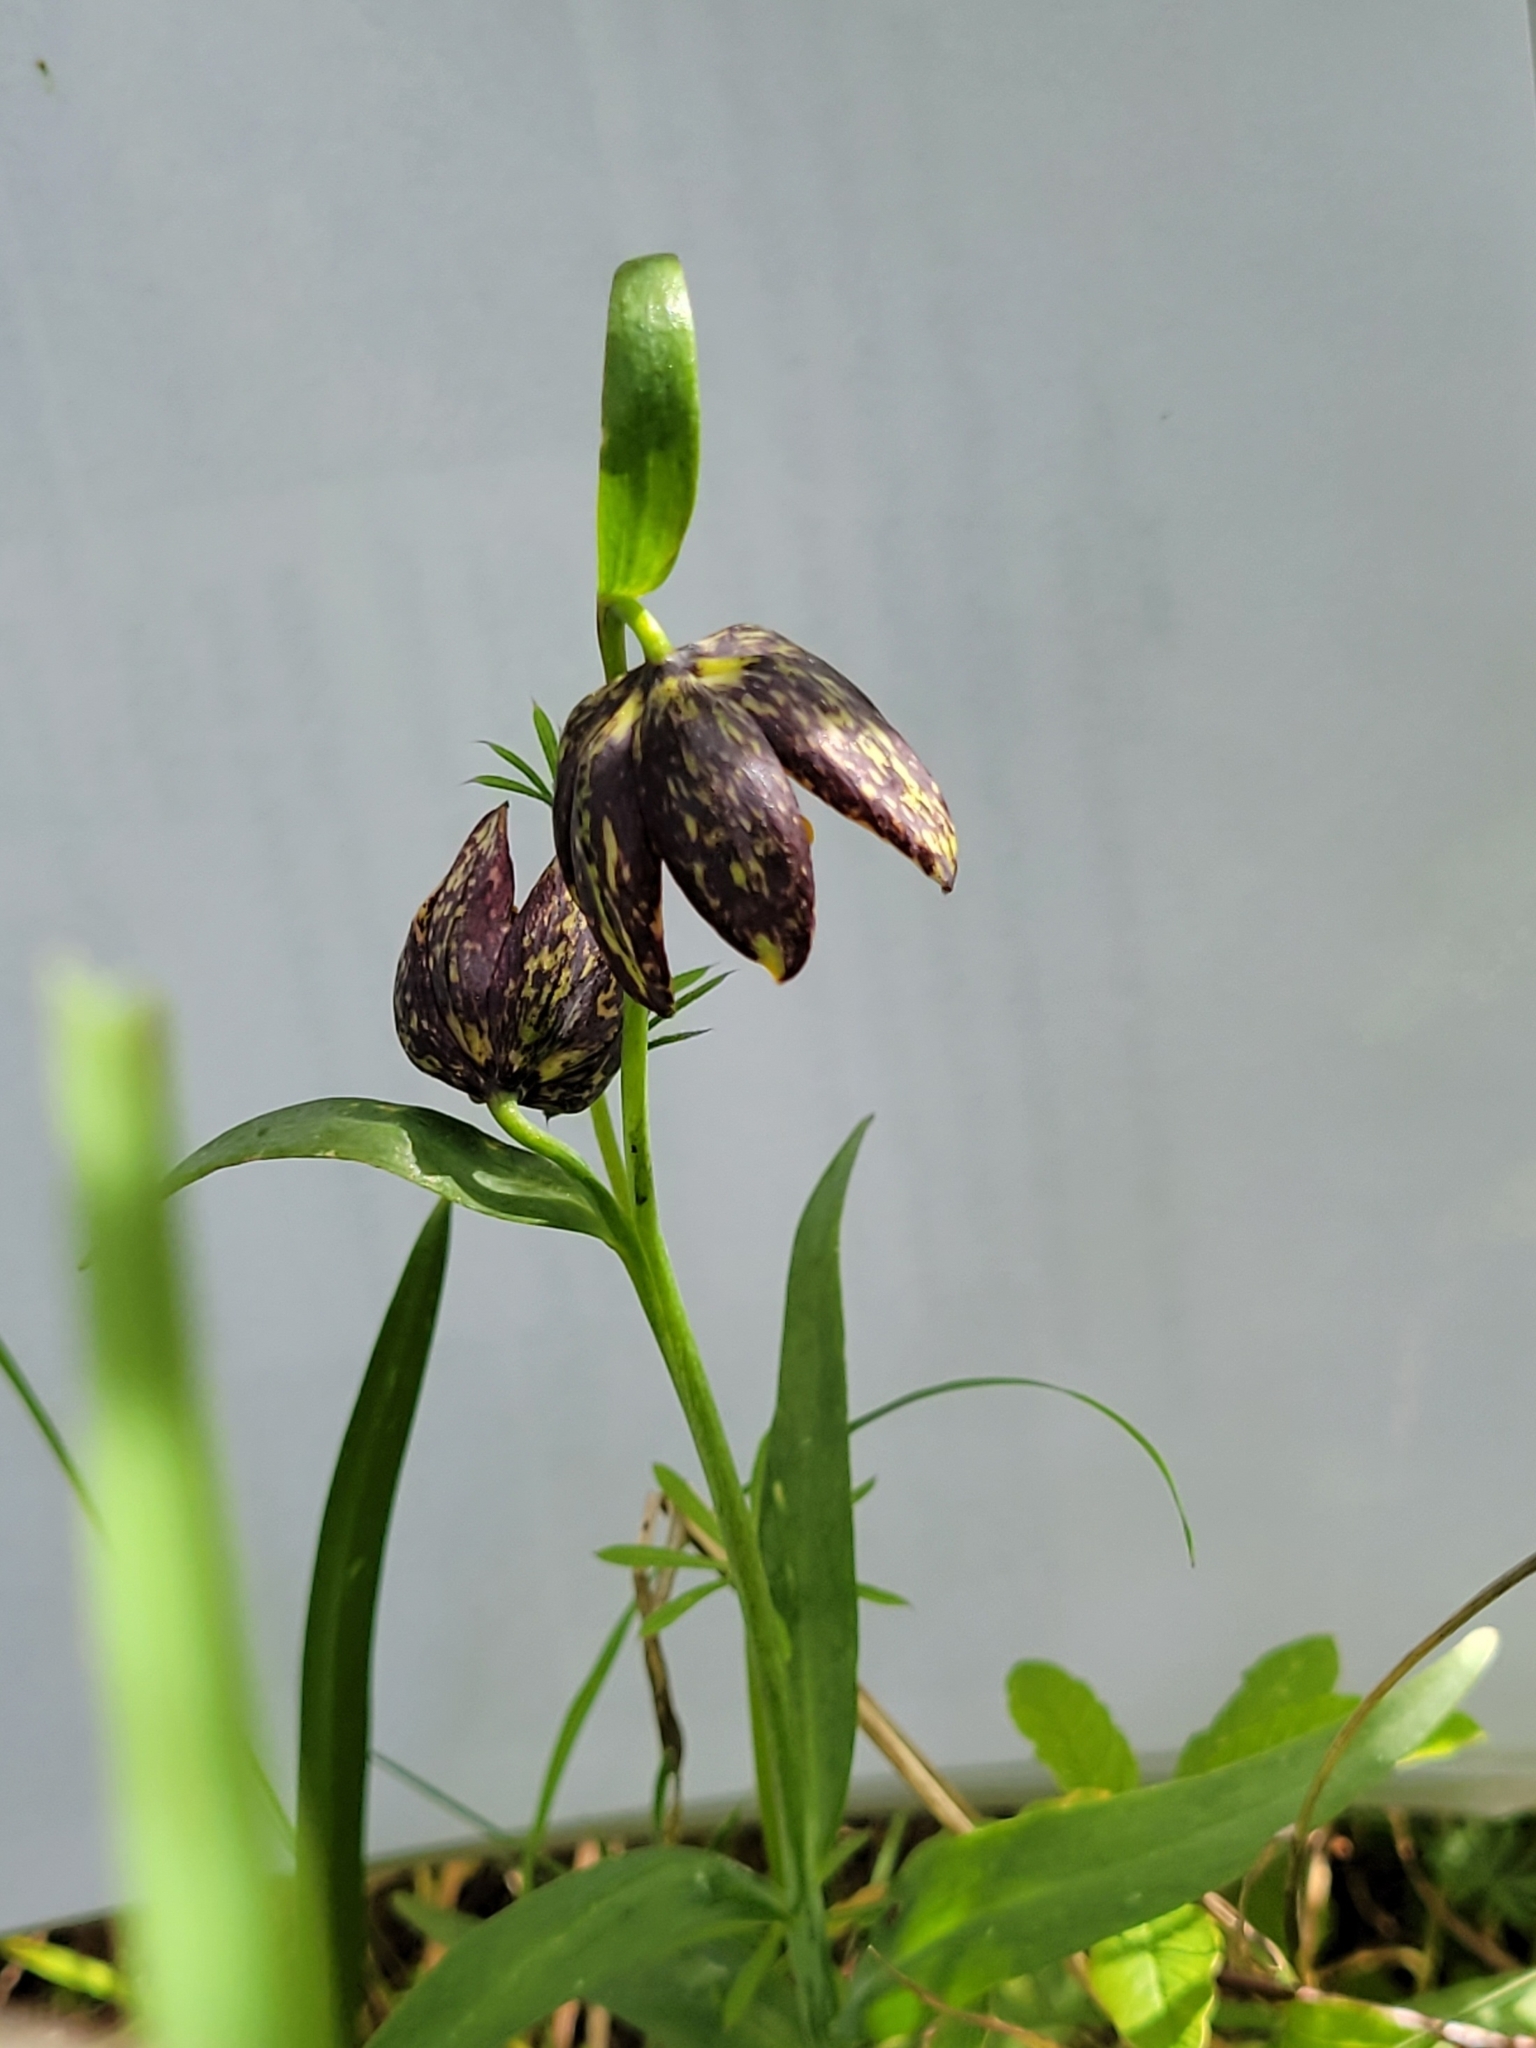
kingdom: Plantae
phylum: Tracheophyta
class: Liliopsida
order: Liliales
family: Liliaceae
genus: Fritillaria
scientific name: Fritillaria affinis
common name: Ojai fritillary
